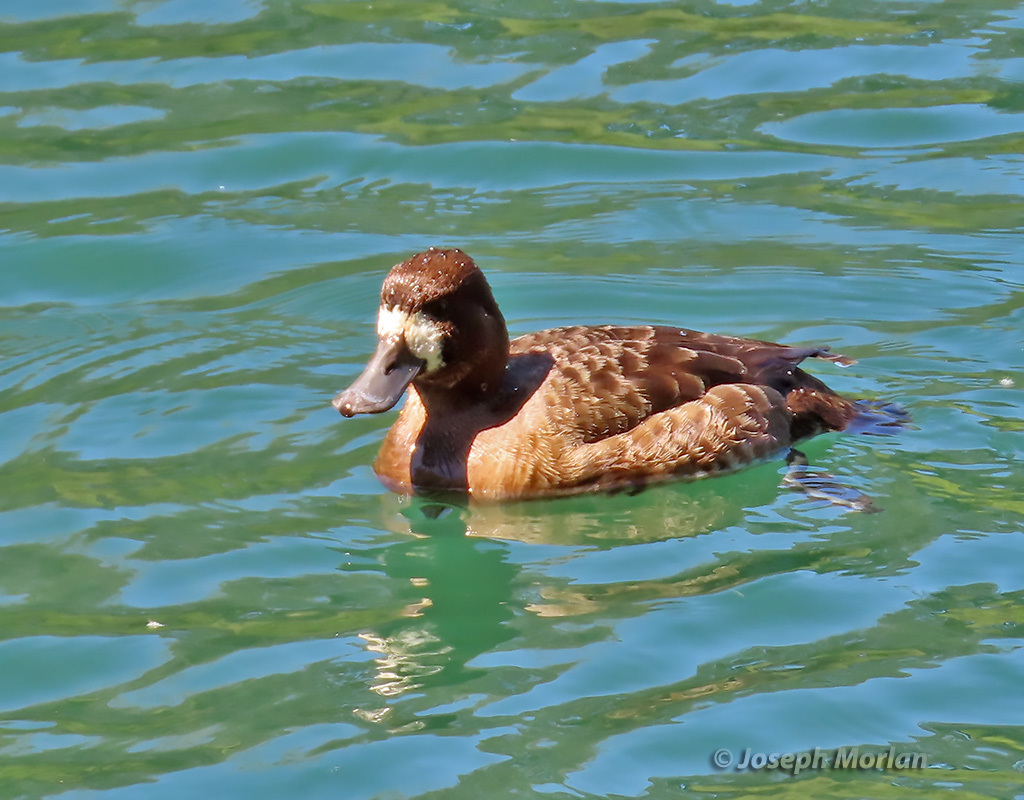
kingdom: Animalia
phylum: Chordata
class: Aves
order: Anseriformes
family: Anatidae
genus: Aythya
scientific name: Aythya affinis
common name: Lesser scaup
